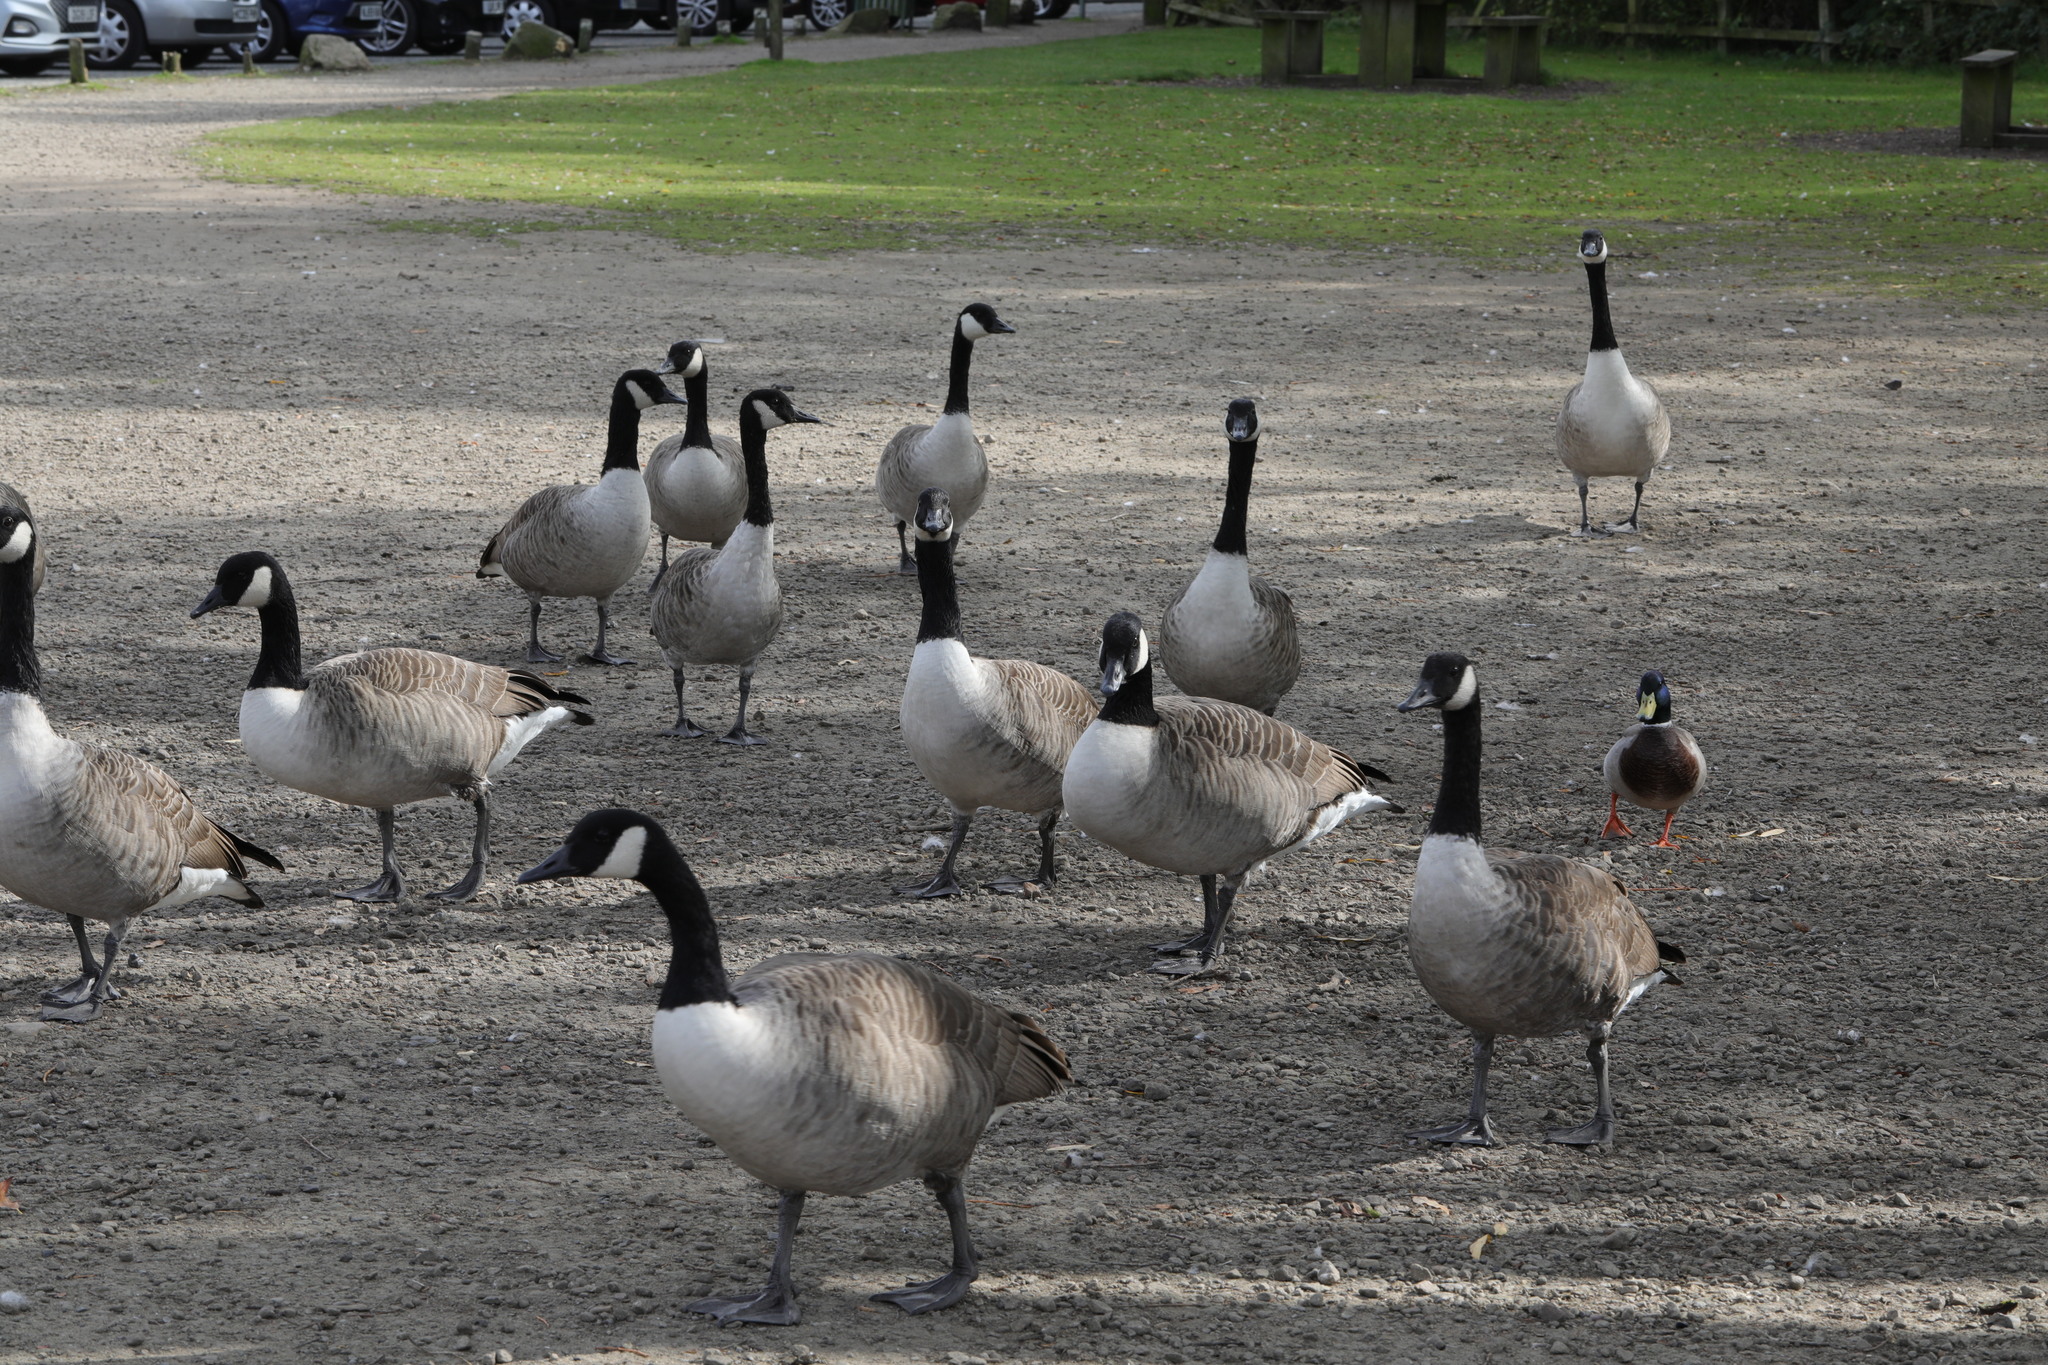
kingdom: Animalia
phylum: Chordata
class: Aves
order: Anseriformes
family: Anatidae
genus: Branta
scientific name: Branta canadensis
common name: Canada goose
